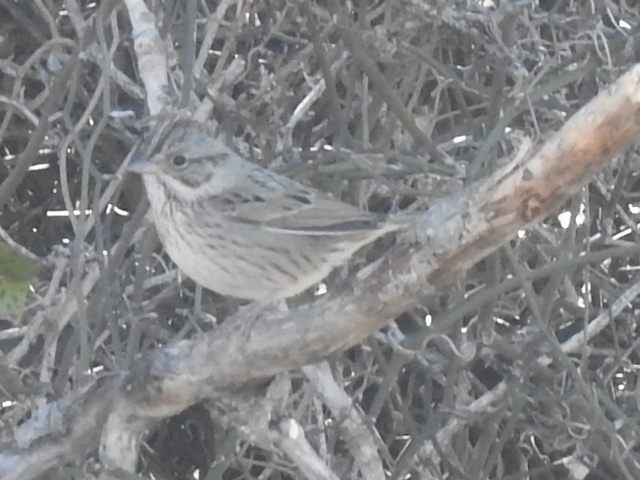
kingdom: Animalia
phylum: Chordata
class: Aves
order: Passeriformes
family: Passerellidae
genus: Melospiza
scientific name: Melospiza lincolnii
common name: Lincoln's sparrow
